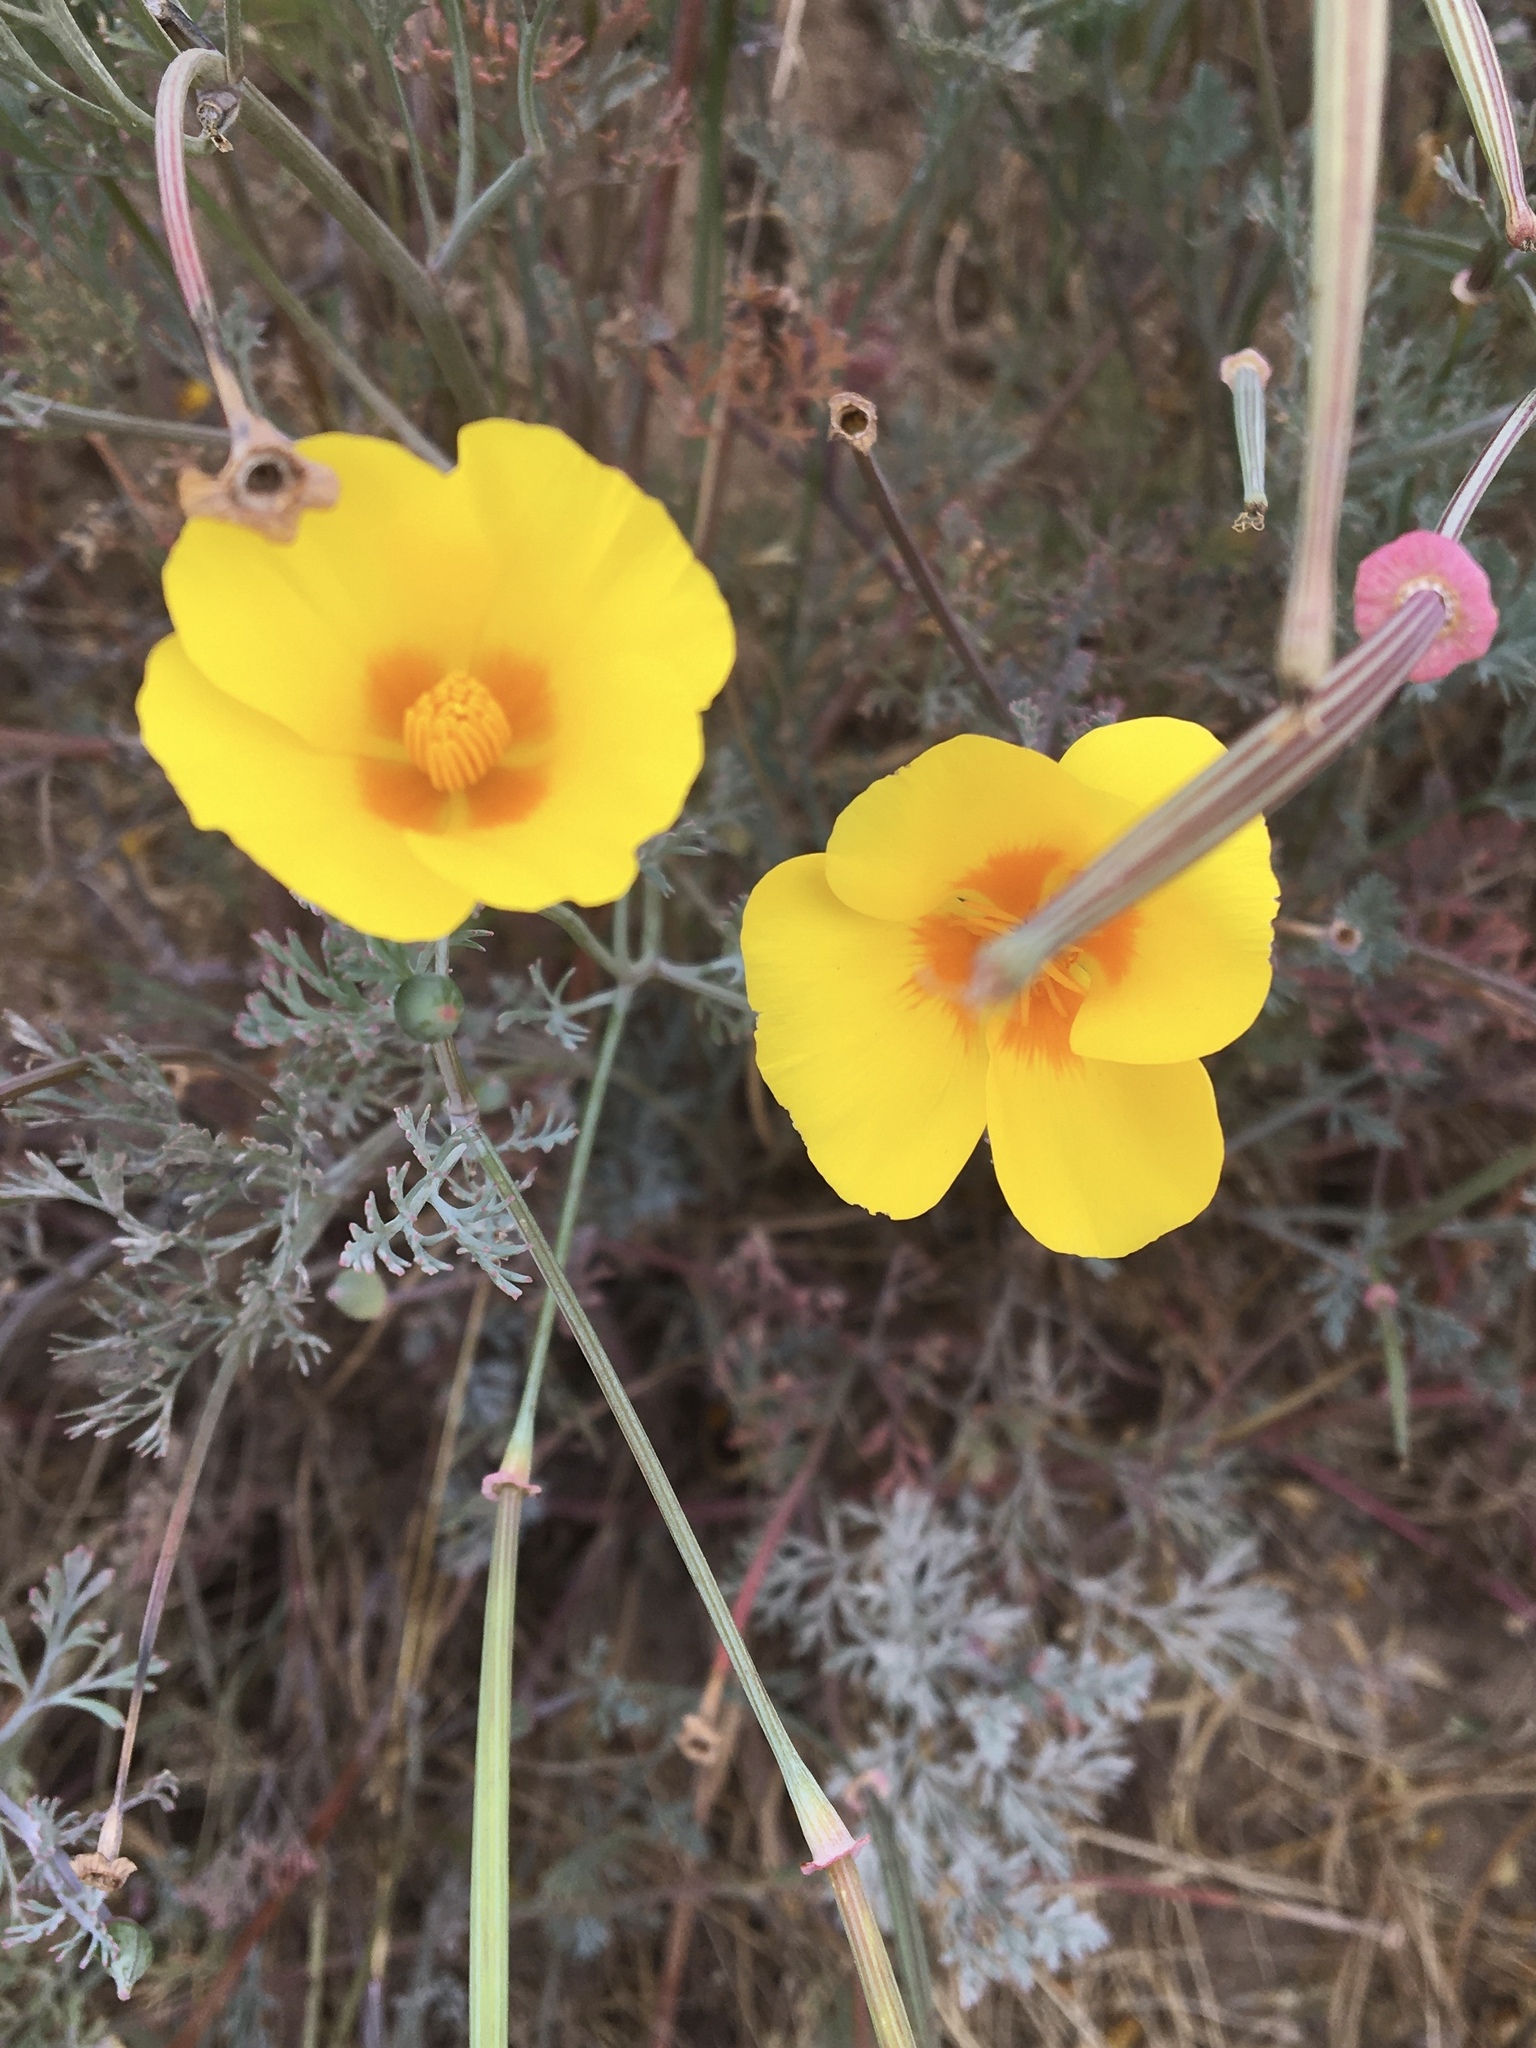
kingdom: Plantae
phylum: Tracheophyta
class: Magnoliopsida
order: Ranunculales
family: Papaveraceae
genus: Eschscholzia
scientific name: Eschscholzia californica
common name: California poppy
